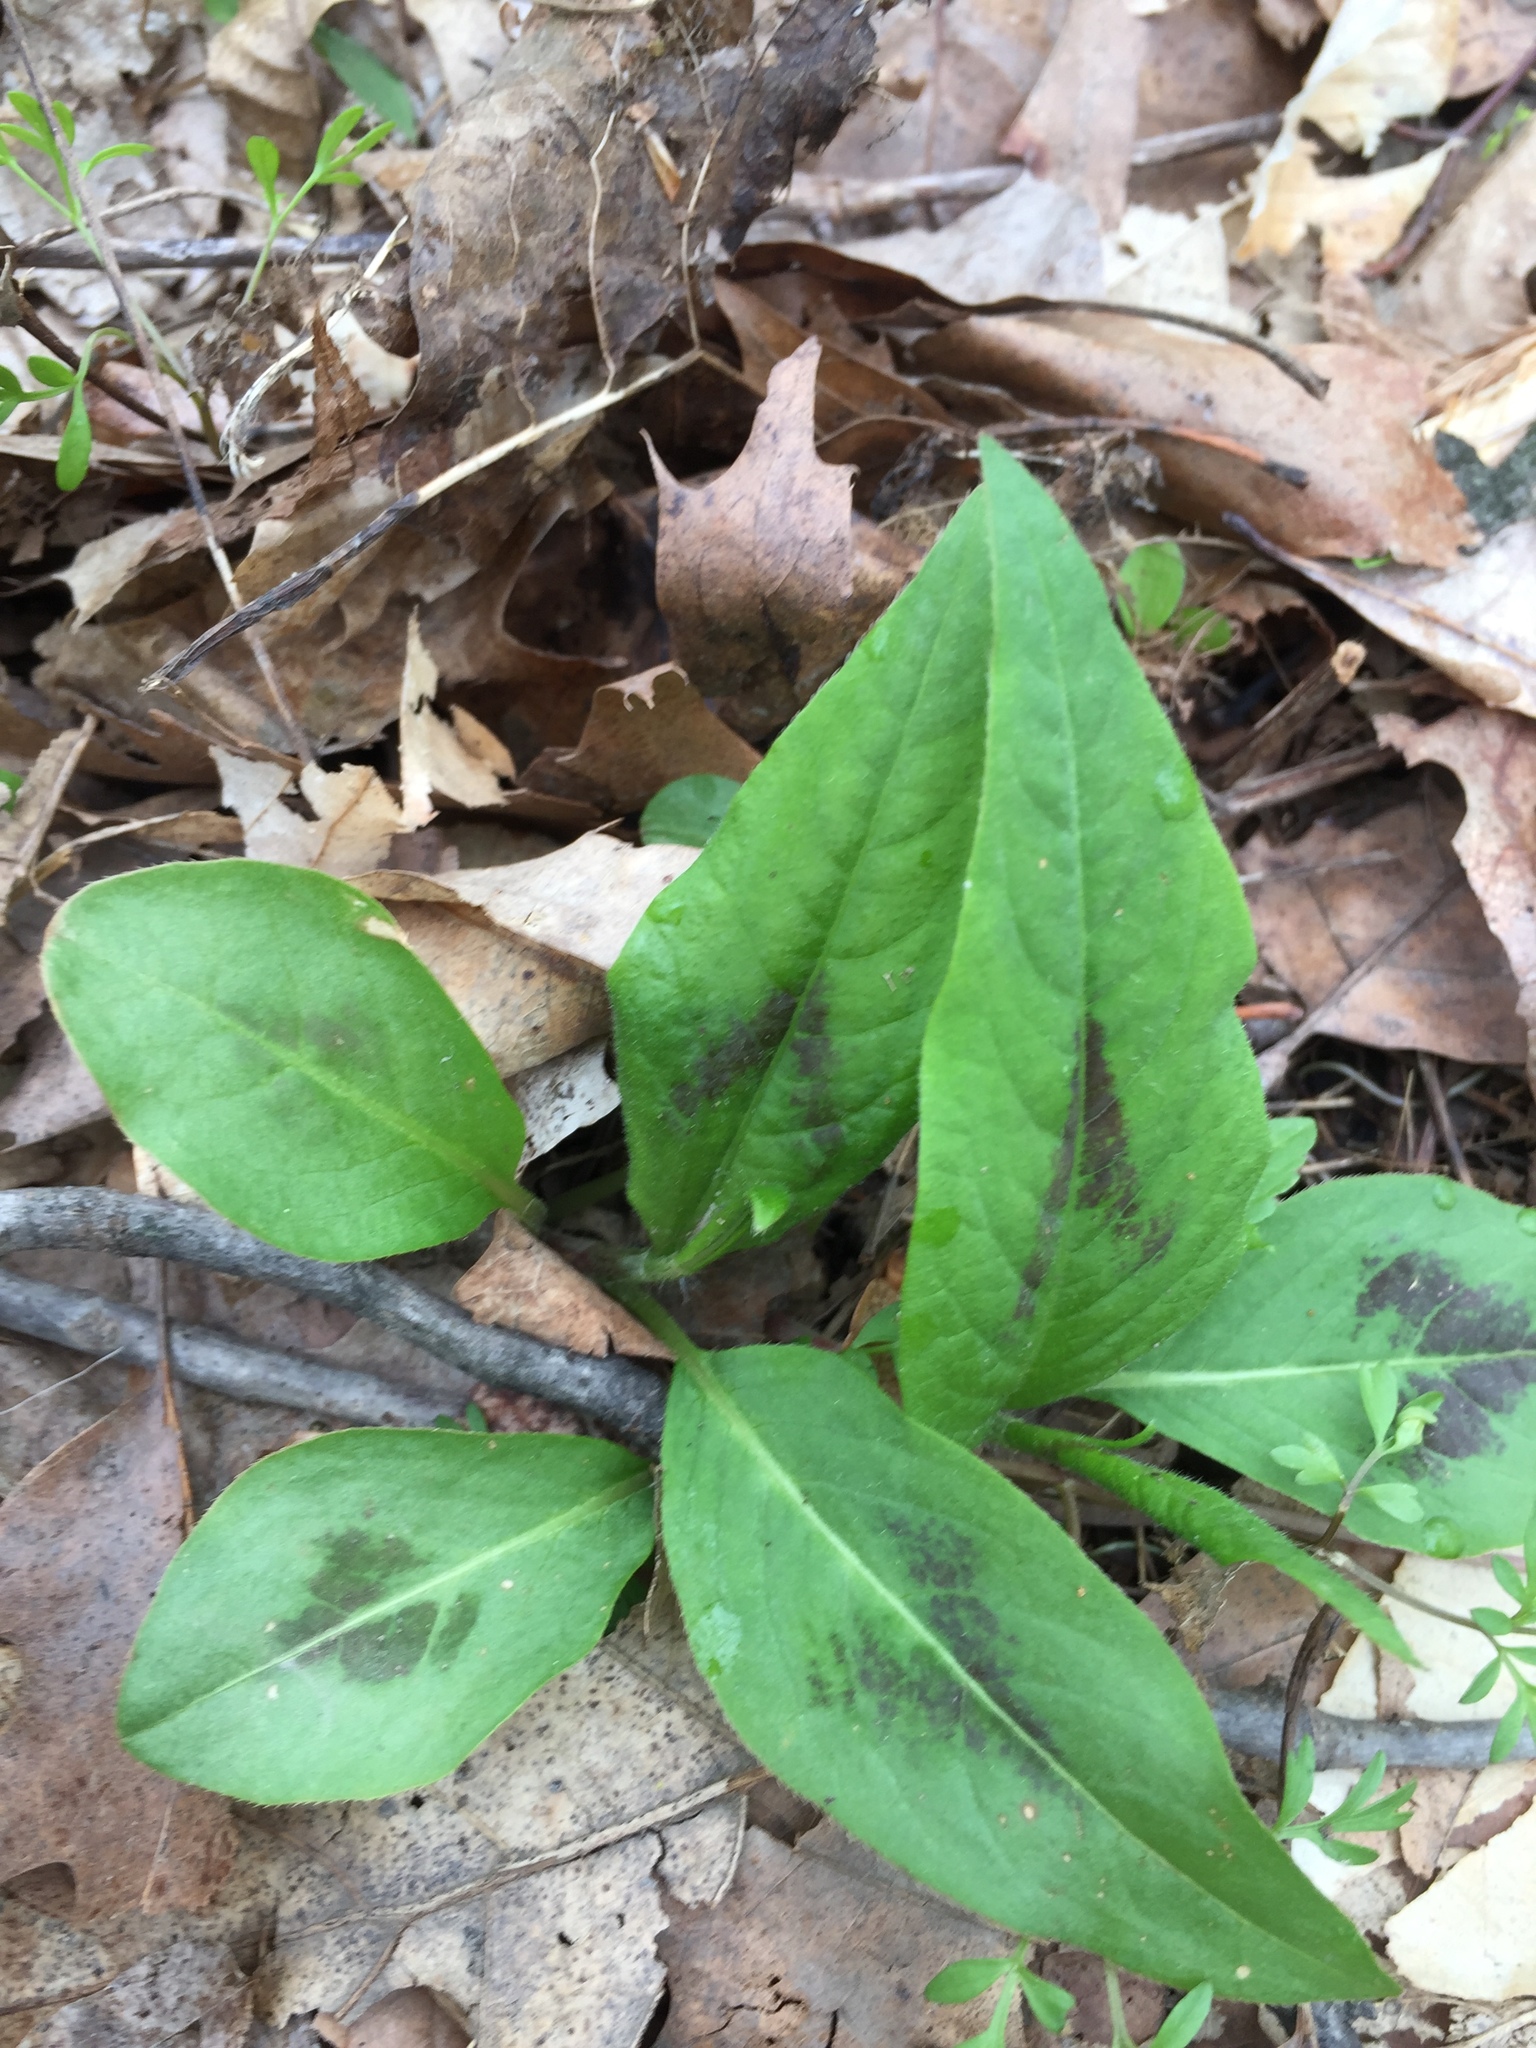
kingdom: Plantae
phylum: Tracheophyta
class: Magnoliopsida
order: Caryophyllales
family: Polygonaceae
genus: Persicaria
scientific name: Persicaria virginiana
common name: Jumpseed
